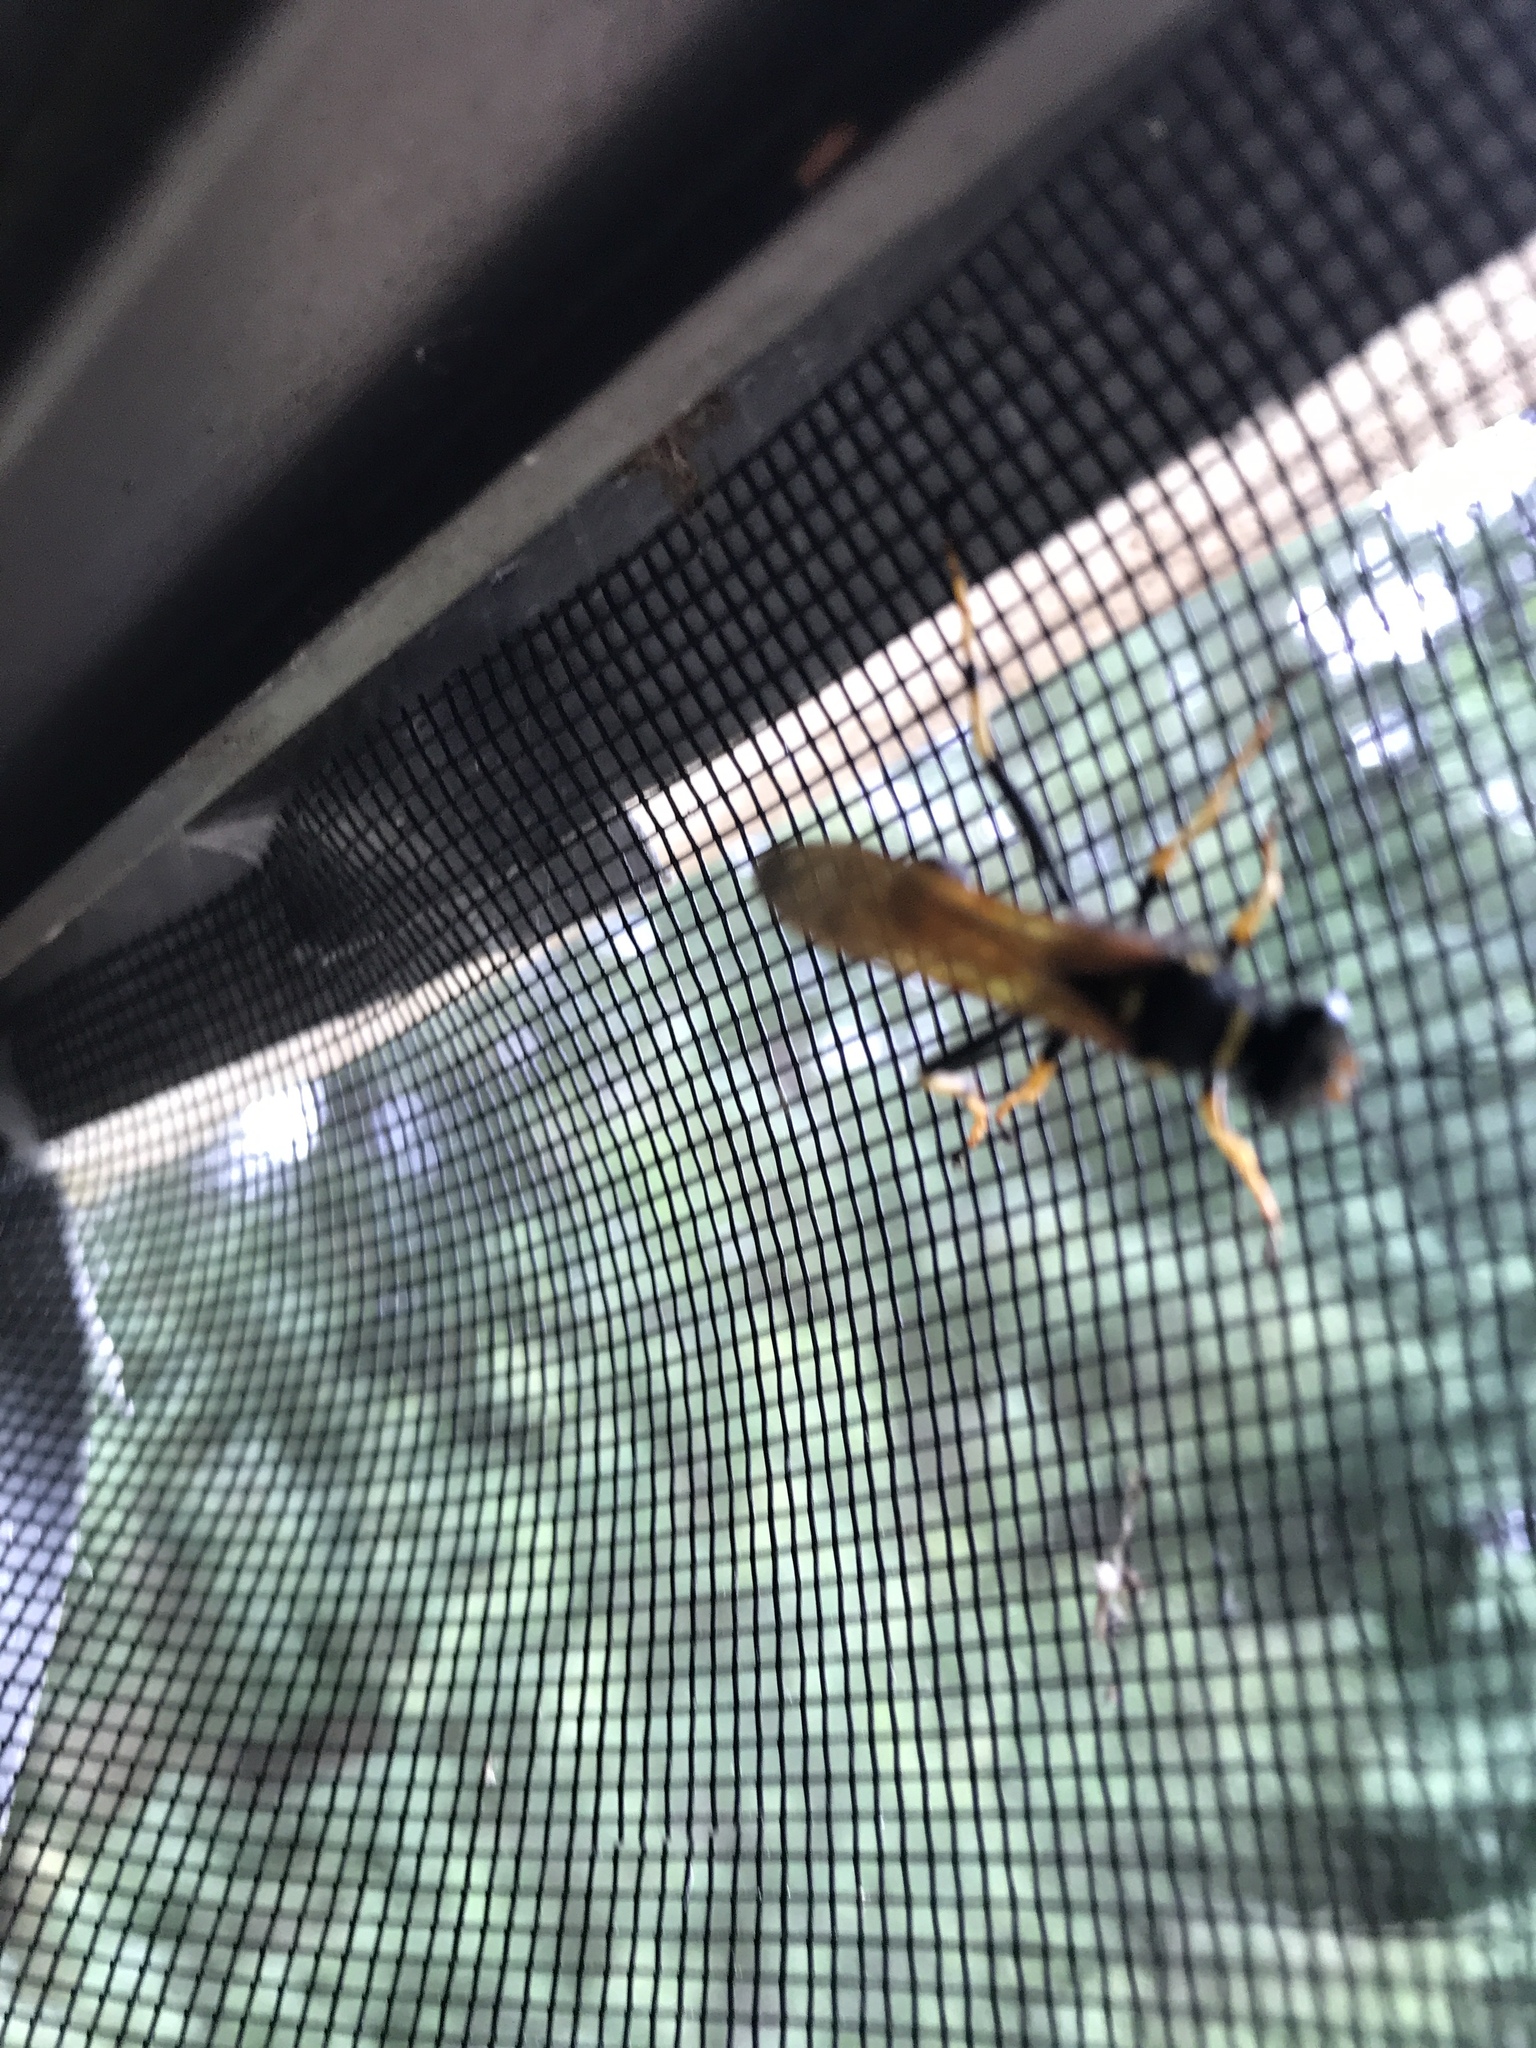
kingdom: Animalia
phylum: Arthropoda
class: Insecta
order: Hymenoptera
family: Sphecidae
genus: Sceliphron
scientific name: Sceliphron caementarium
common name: Mud dauber
